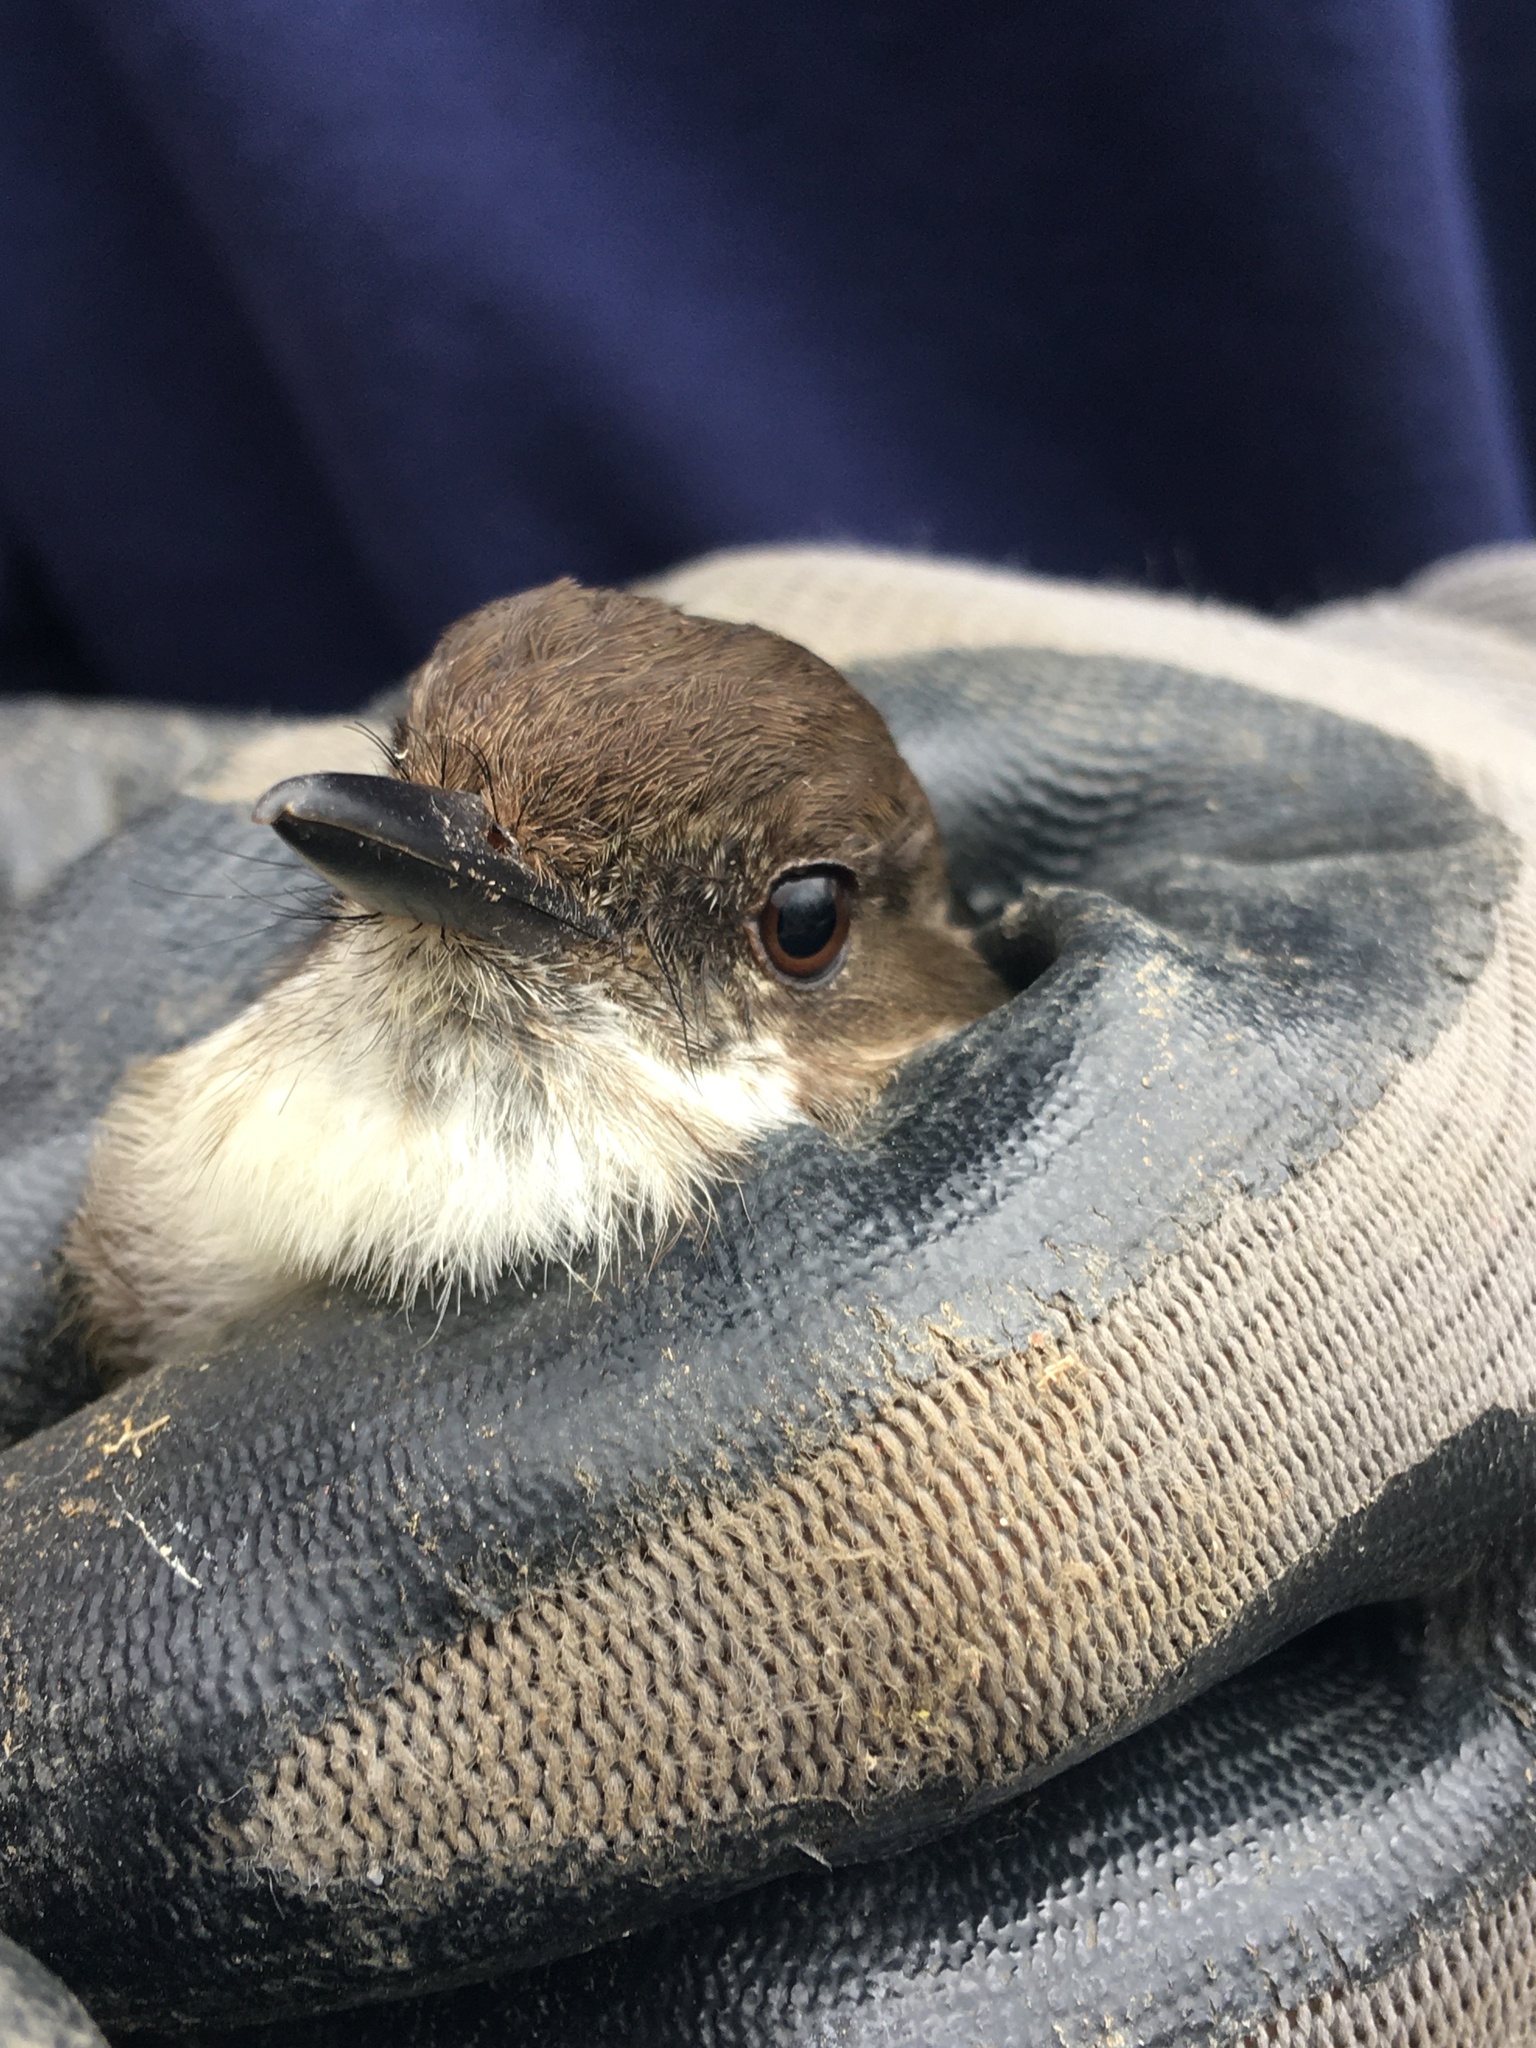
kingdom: Animalia
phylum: Chordata
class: Aves
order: Passeriformes
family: Tyrannidae
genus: Sayornis
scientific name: Sayornis phoebe
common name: Eastern phoebe
